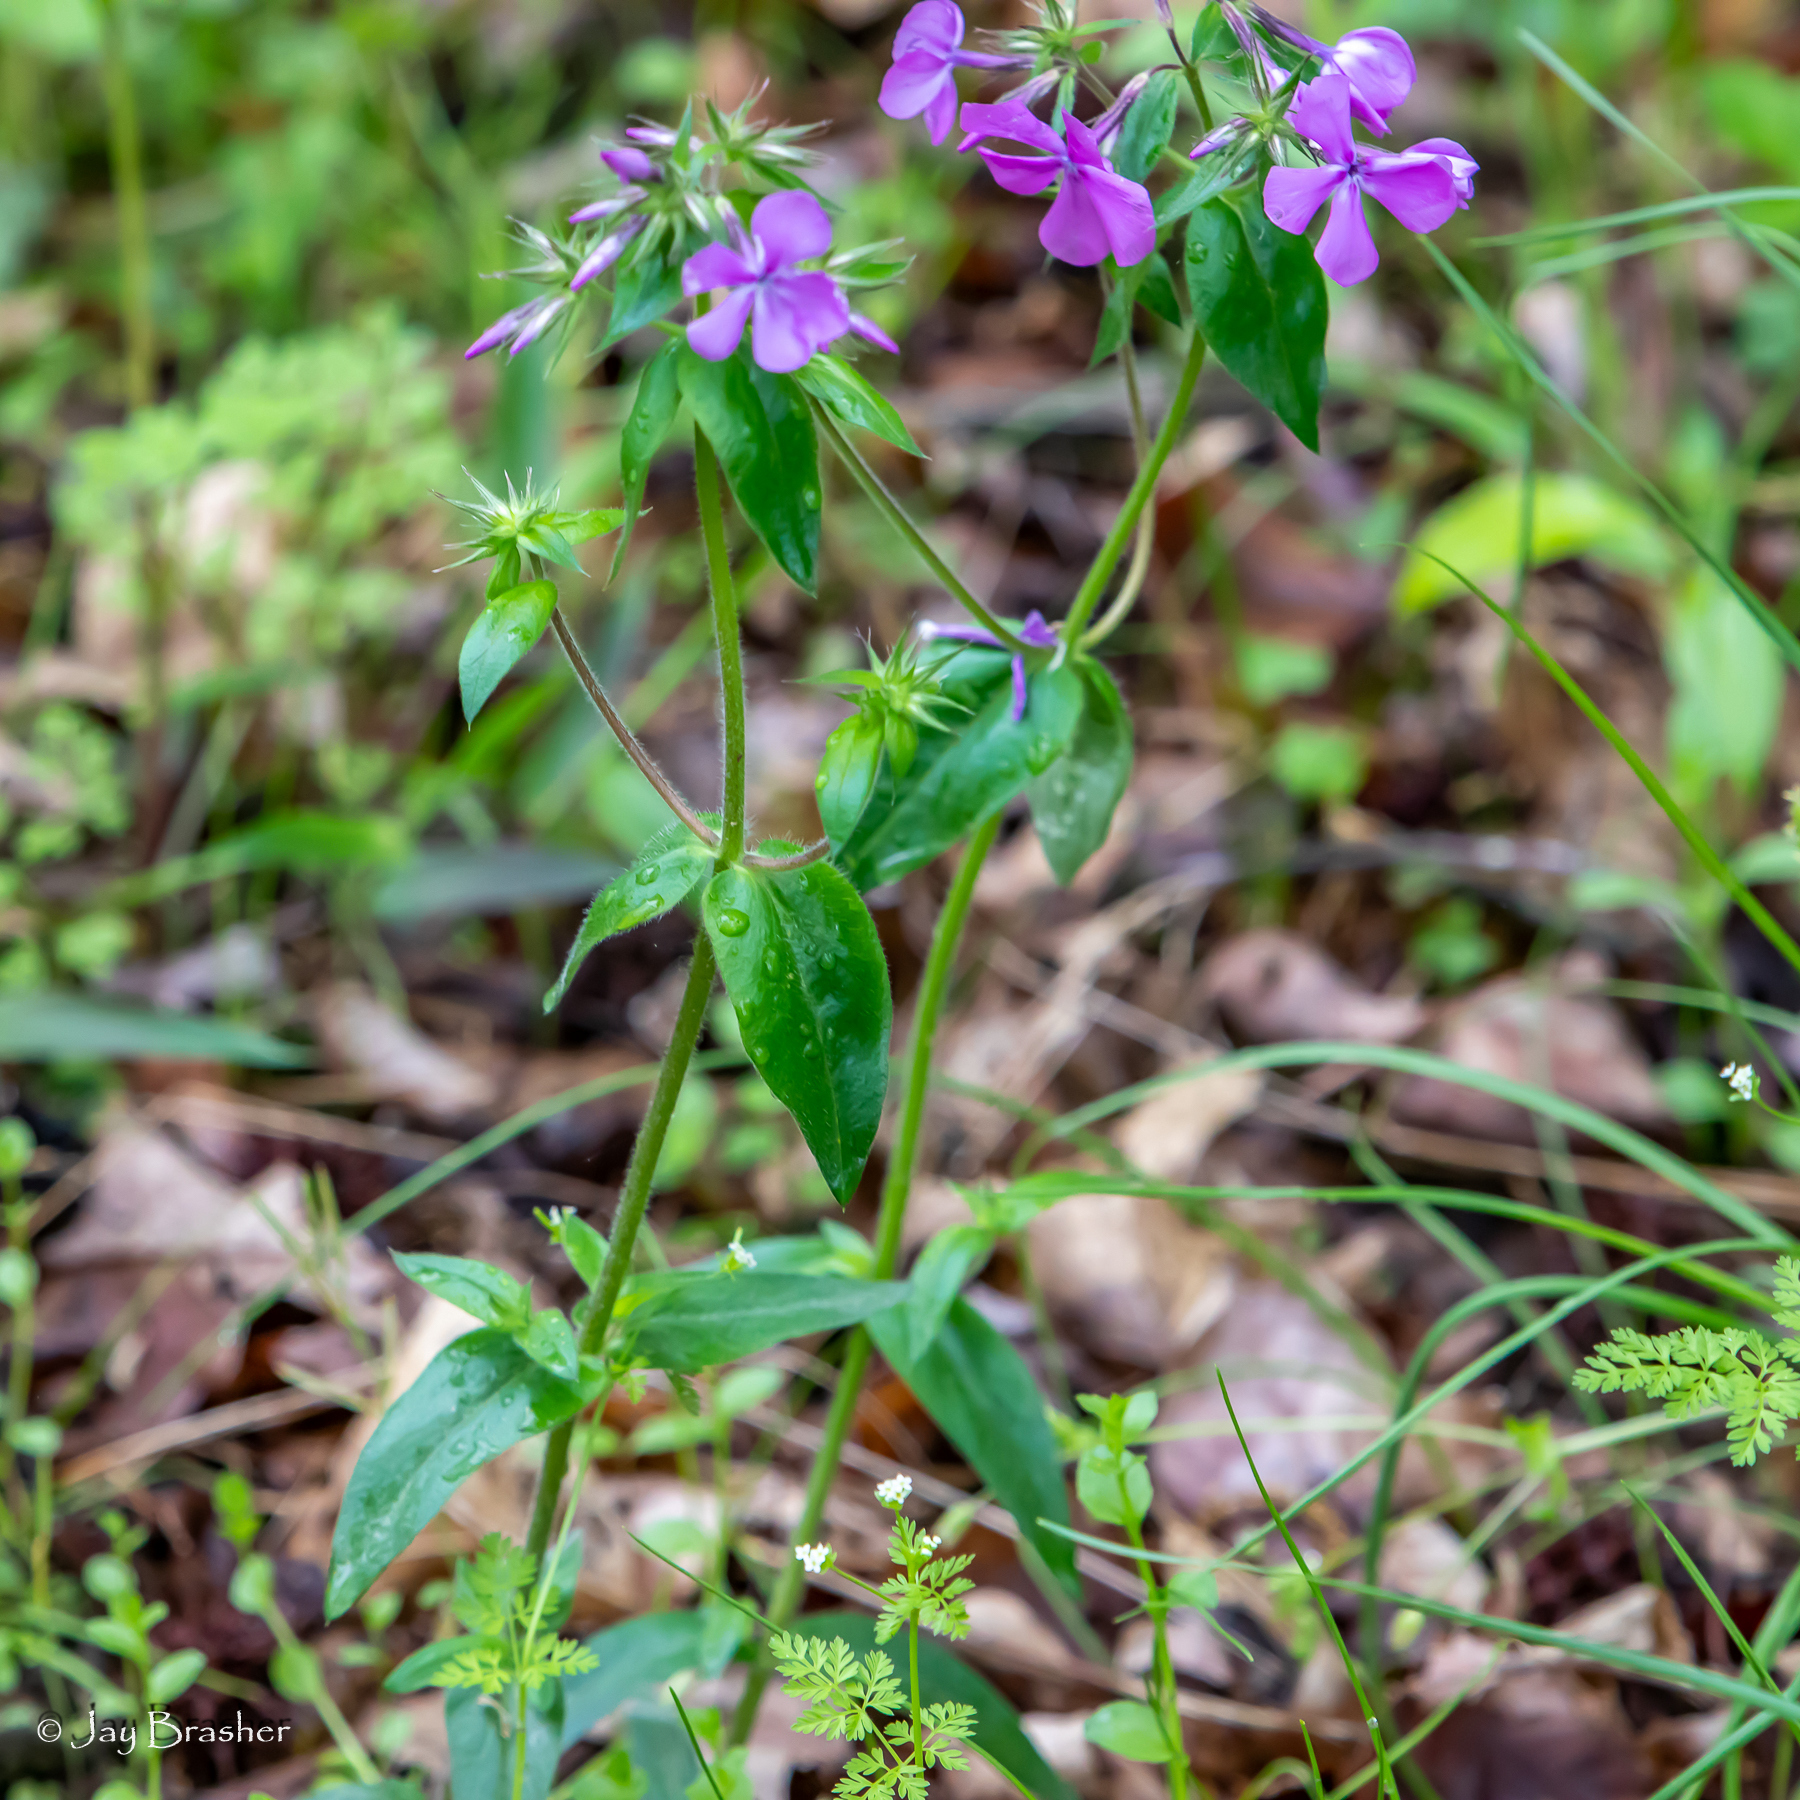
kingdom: Plantae
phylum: Tracheophyta
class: Magnoliopsida
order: Ericales
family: Polemoniaceae
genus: Phlox
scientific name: Phlox pilosa
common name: Prairie phlox
